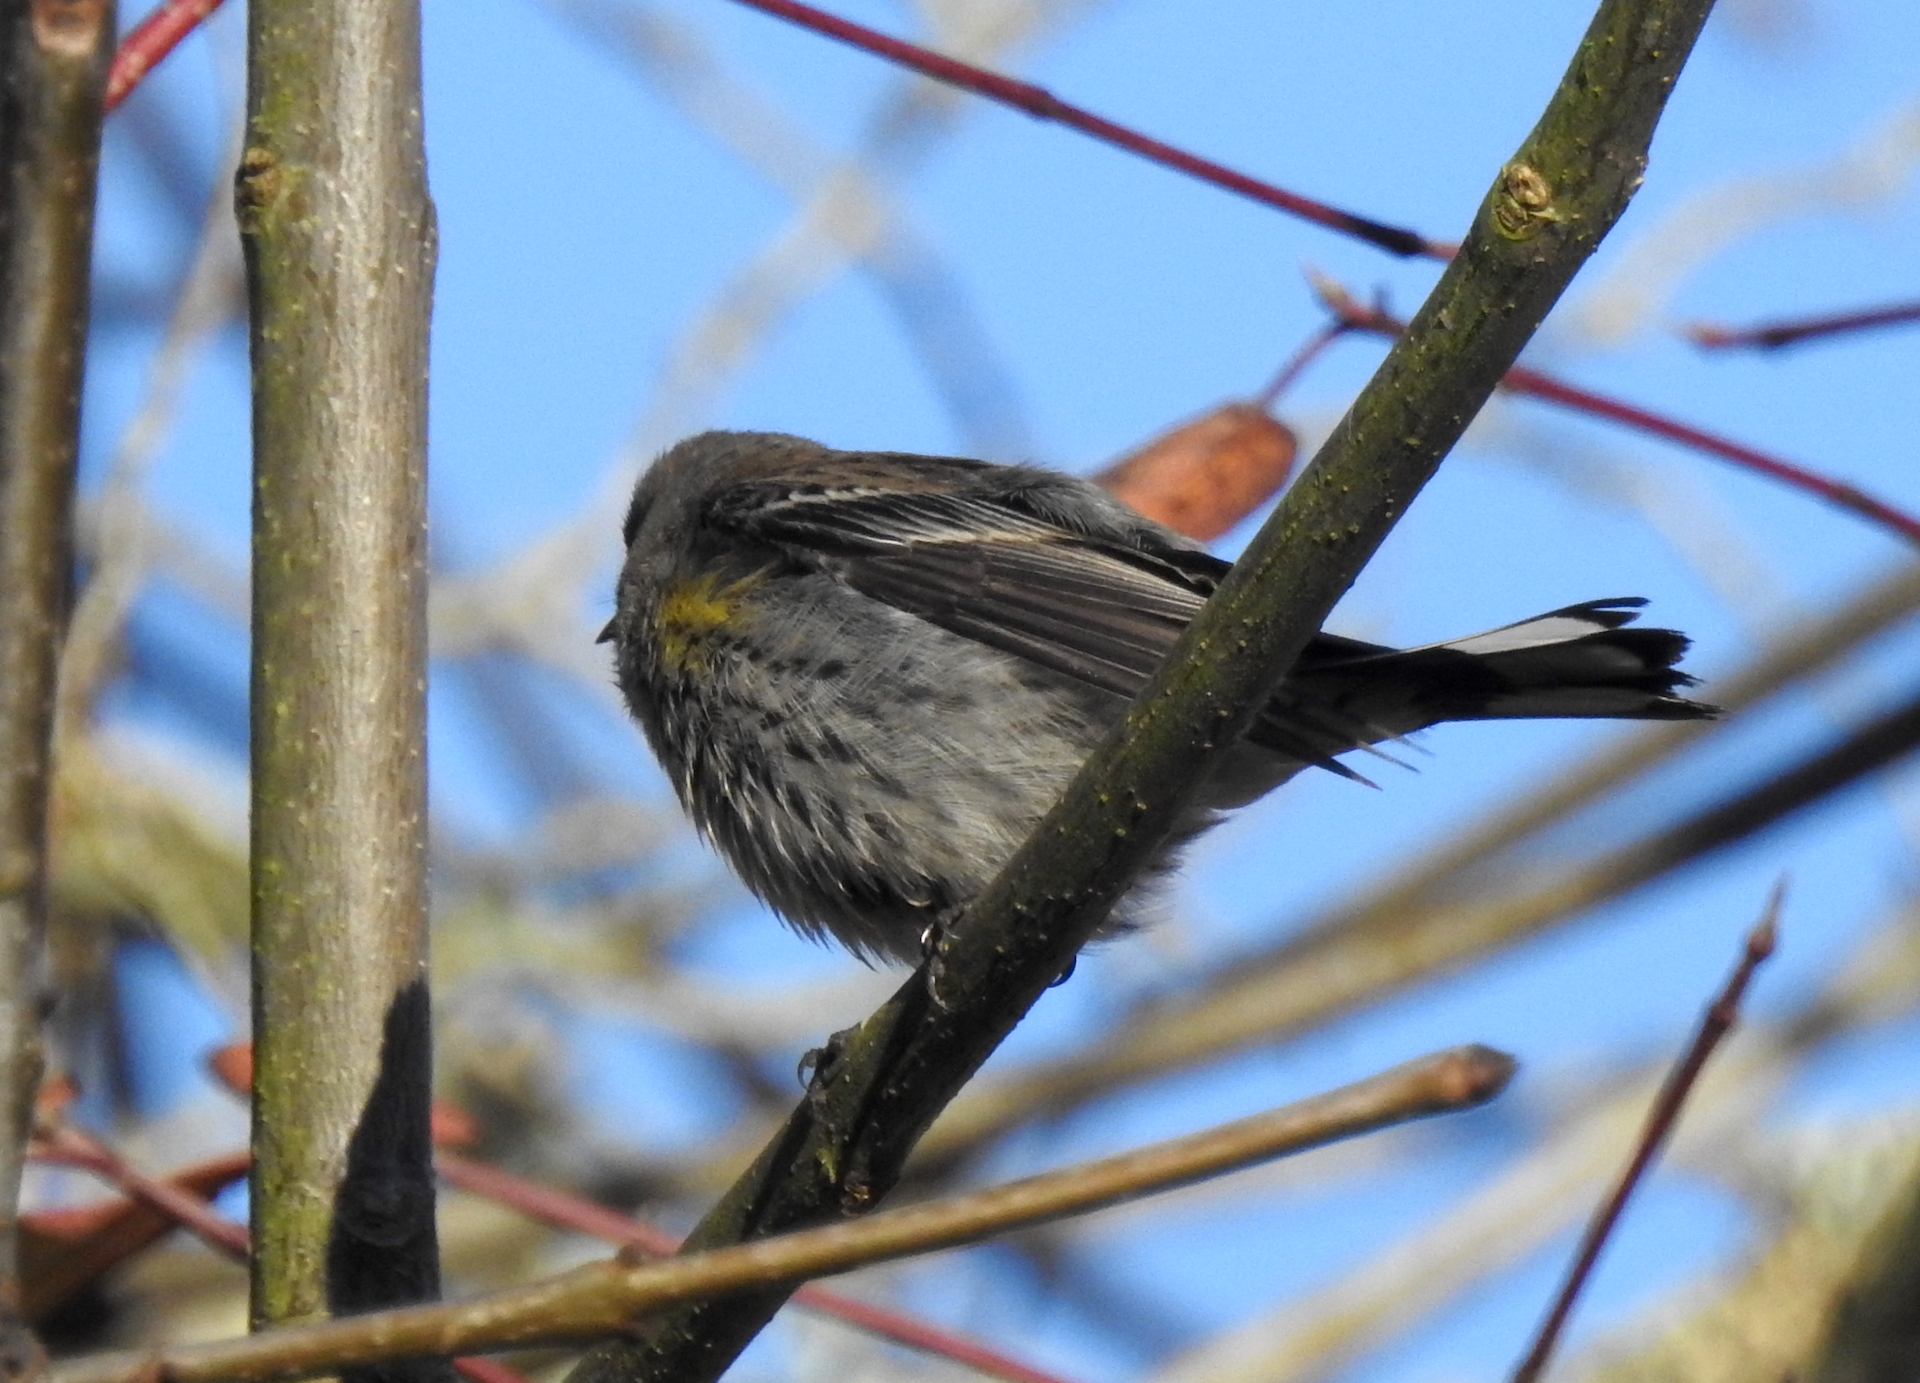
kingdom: Animalia
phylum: Chordata
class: Aves
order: Passeriformes
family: Parulidae
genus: Setophaga
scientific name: Setophaga auduboni
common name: Audubon's warbler
